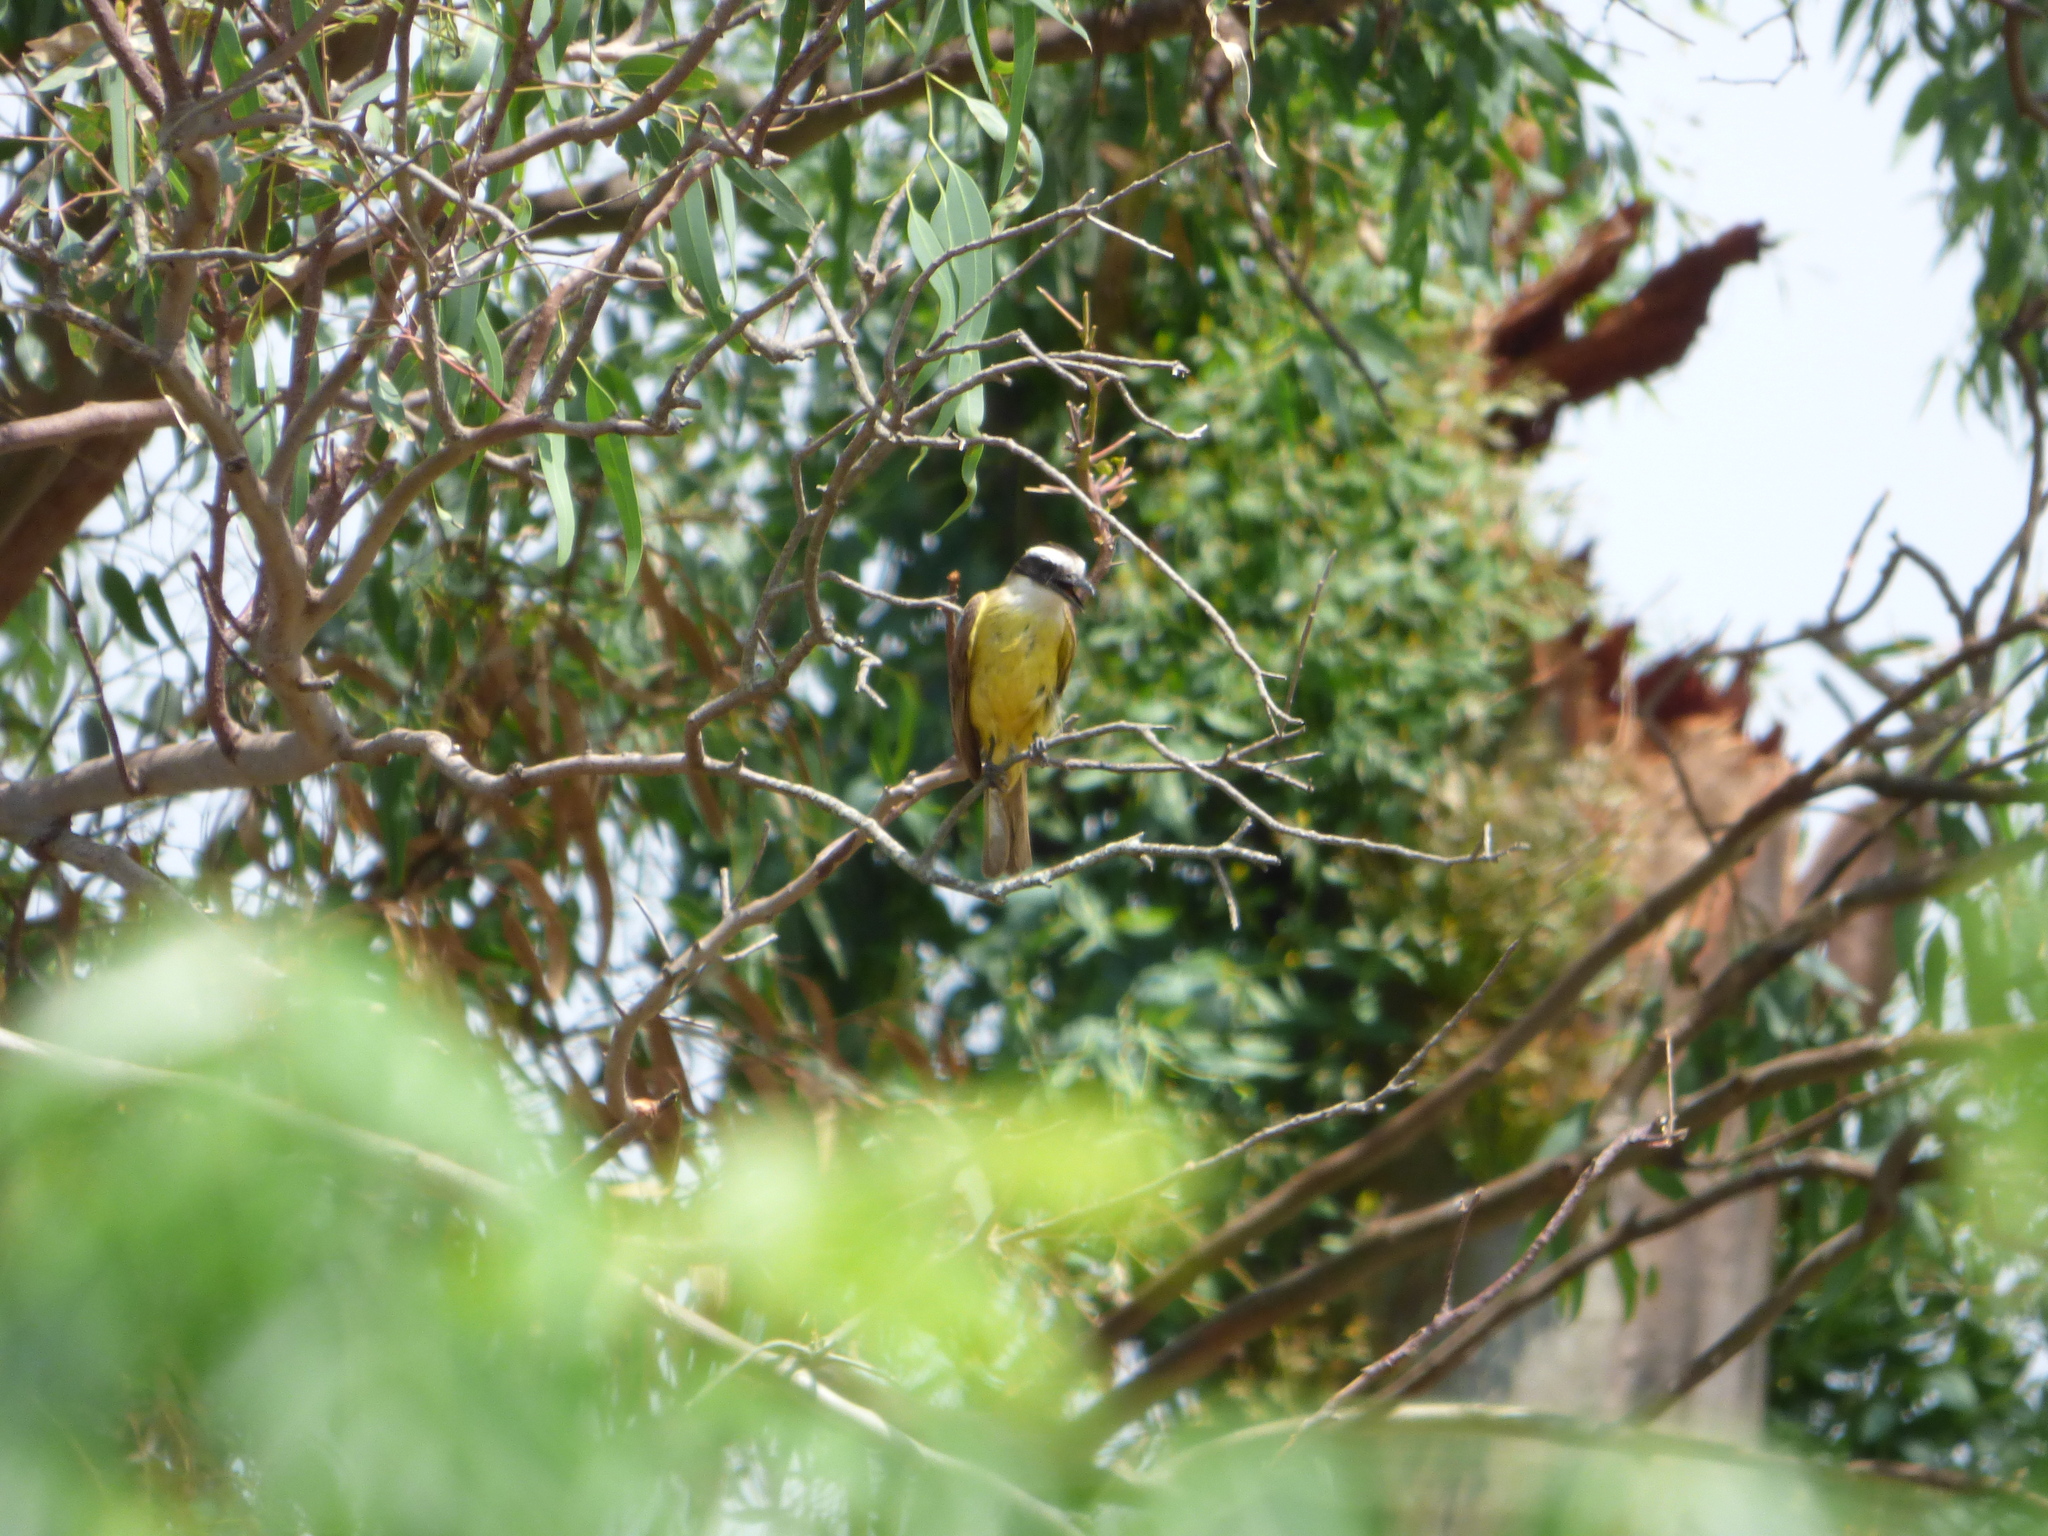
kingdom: Animalia
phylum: Chordata
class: Aves
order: Passeriformes
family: Tyrannidae
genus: Pitangus
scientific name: Pitangus sulphuratus
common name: Great kiskadee
